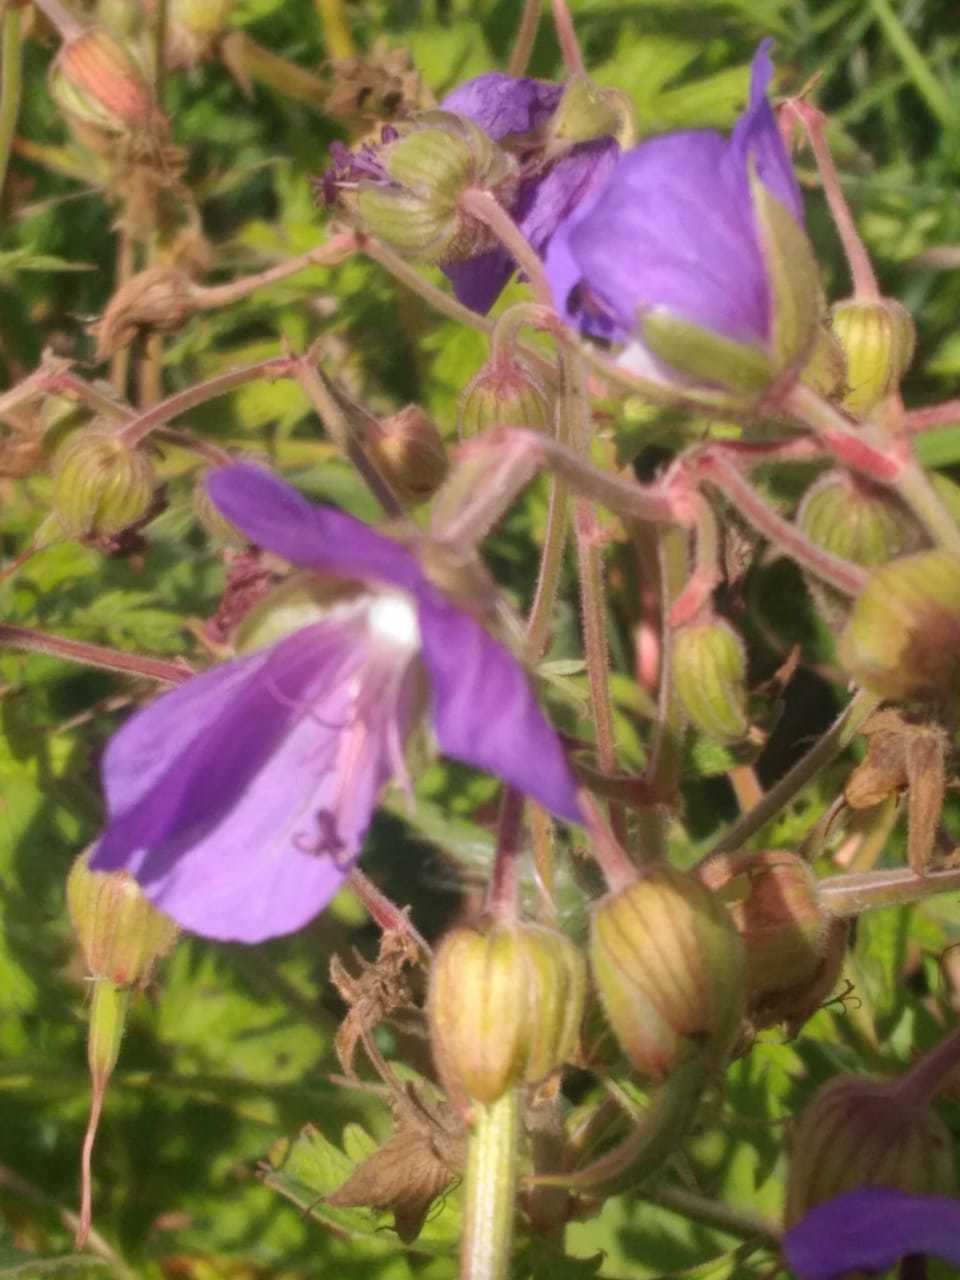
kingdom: Plantae
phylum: Tracheophyta
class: Magnoliopsida
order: Geraniales
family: Geraniaceae
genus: Geranium
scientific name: Geranium pratense
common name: Meadow crane's-bill
